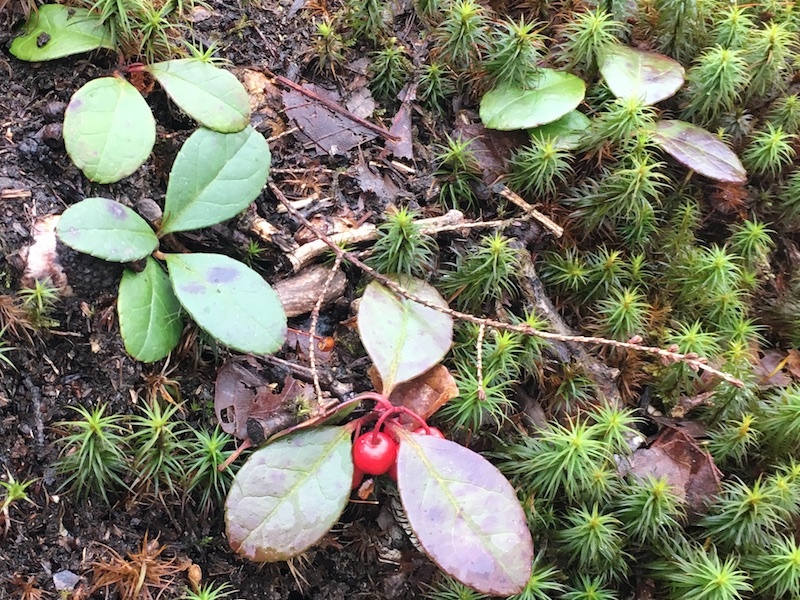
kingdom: Plantae
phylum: Tracheophyta
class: Magnoliopsida
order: Ericales
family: Ericaceae
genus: Gaultheria
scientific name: Gaultheria procumbens
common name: Checkerberry
